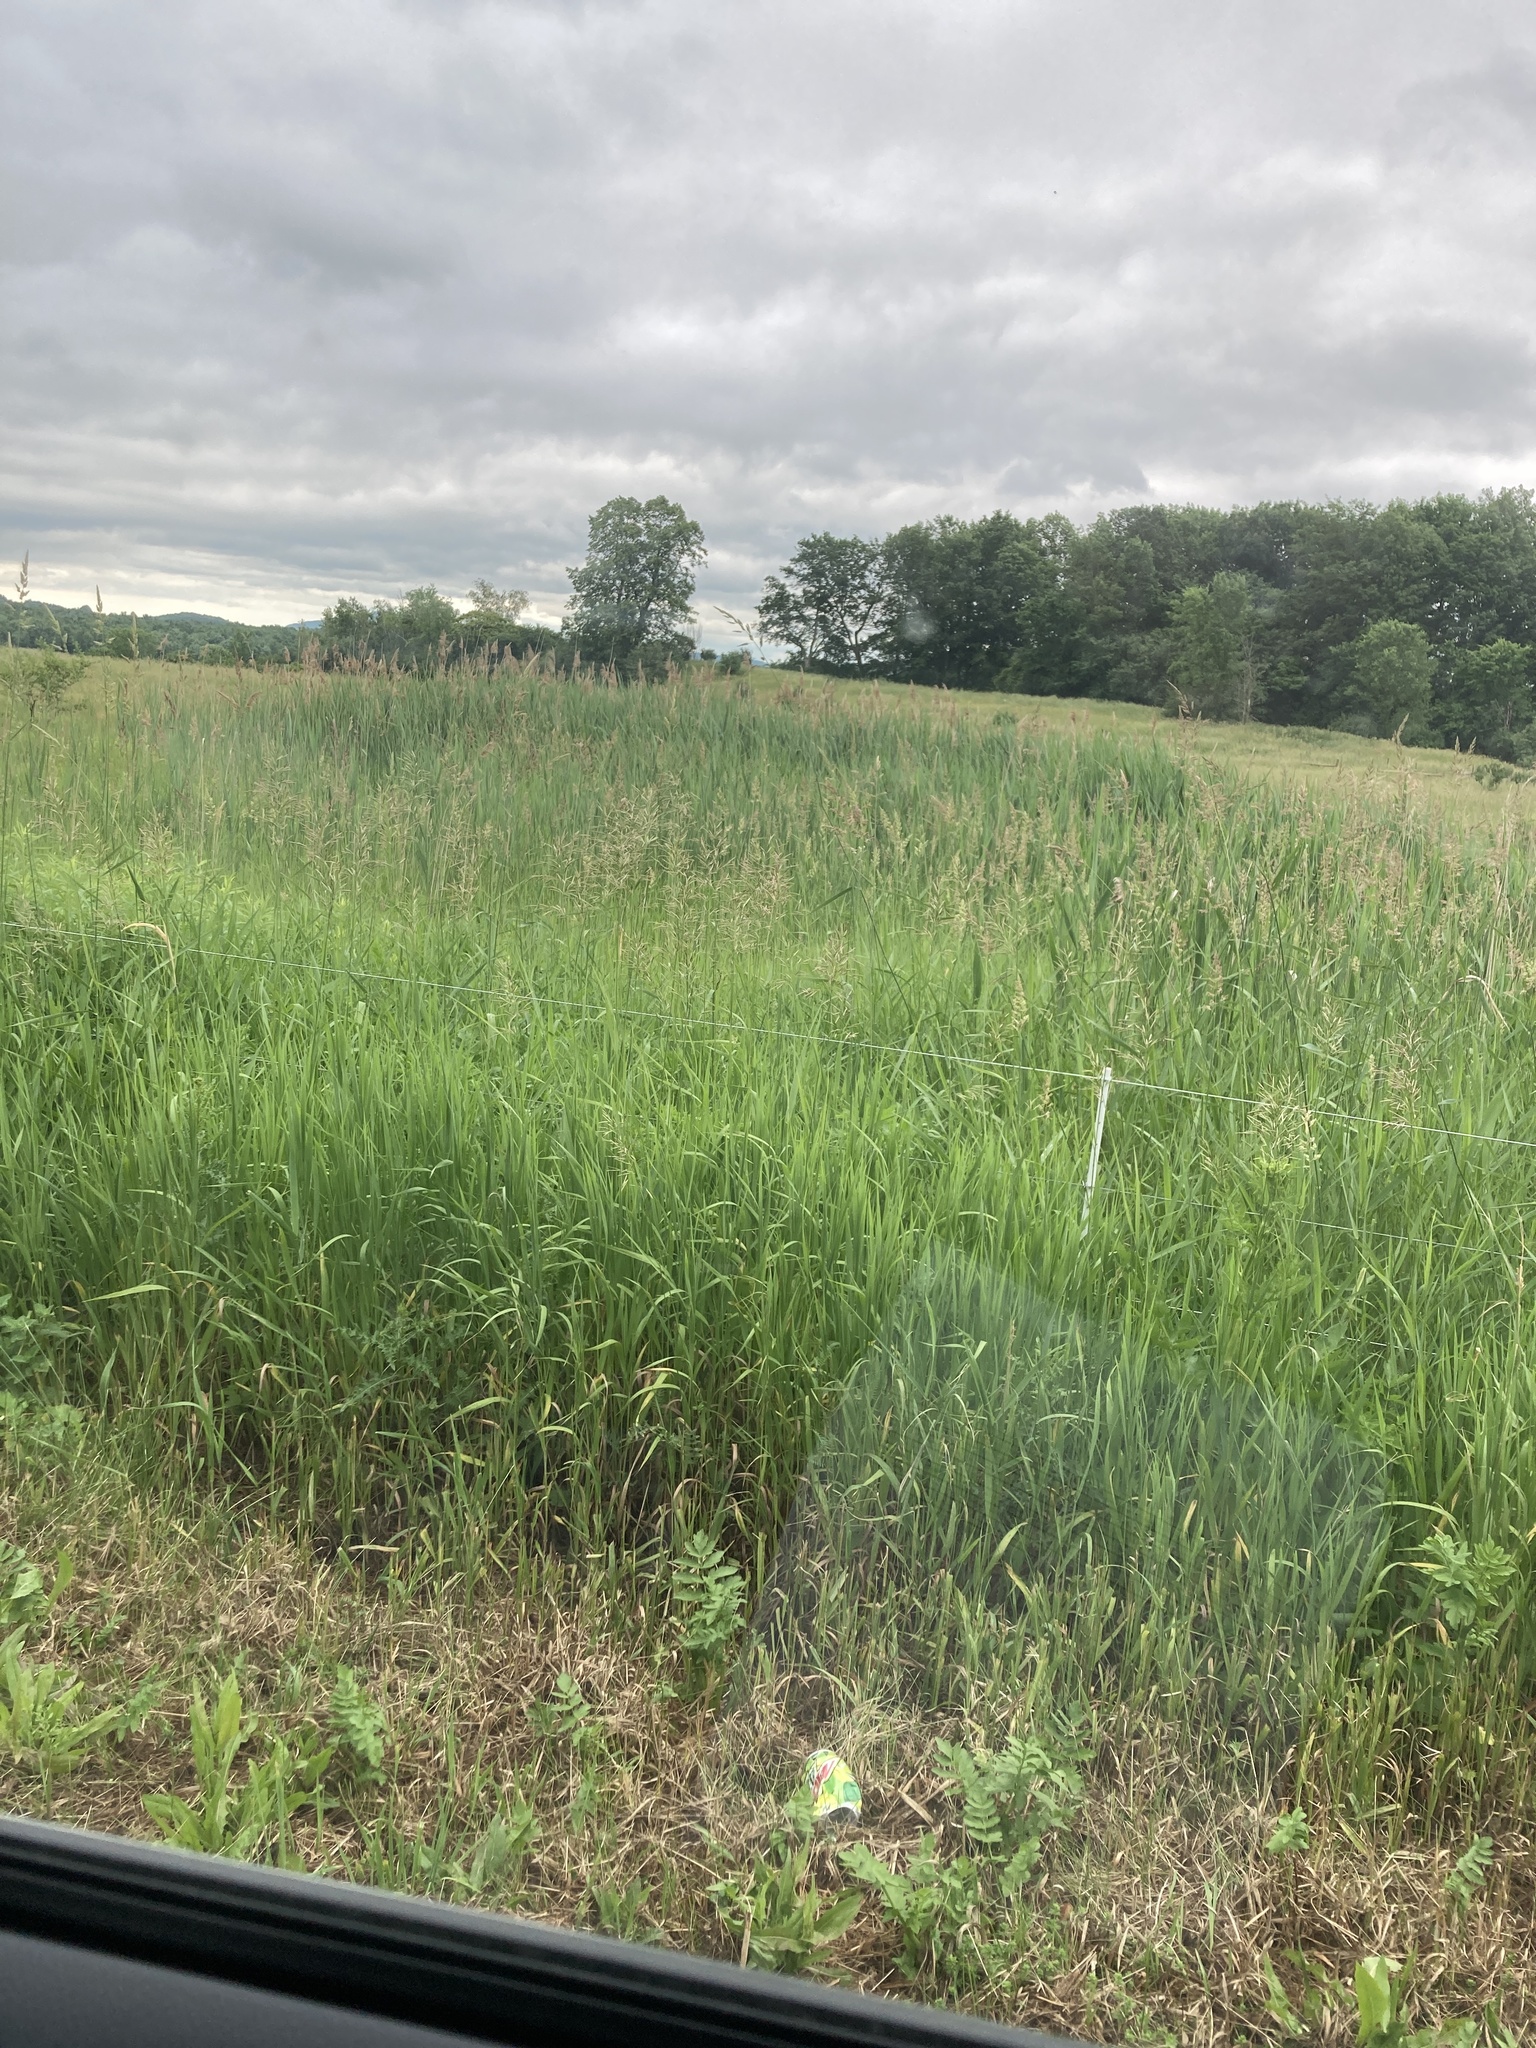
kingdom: Plantae
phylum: Tracheophyta
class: Liliopsida
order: Poales
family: Poaceae
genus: Phragmites
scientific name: Phragmites australis
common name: Common reed
